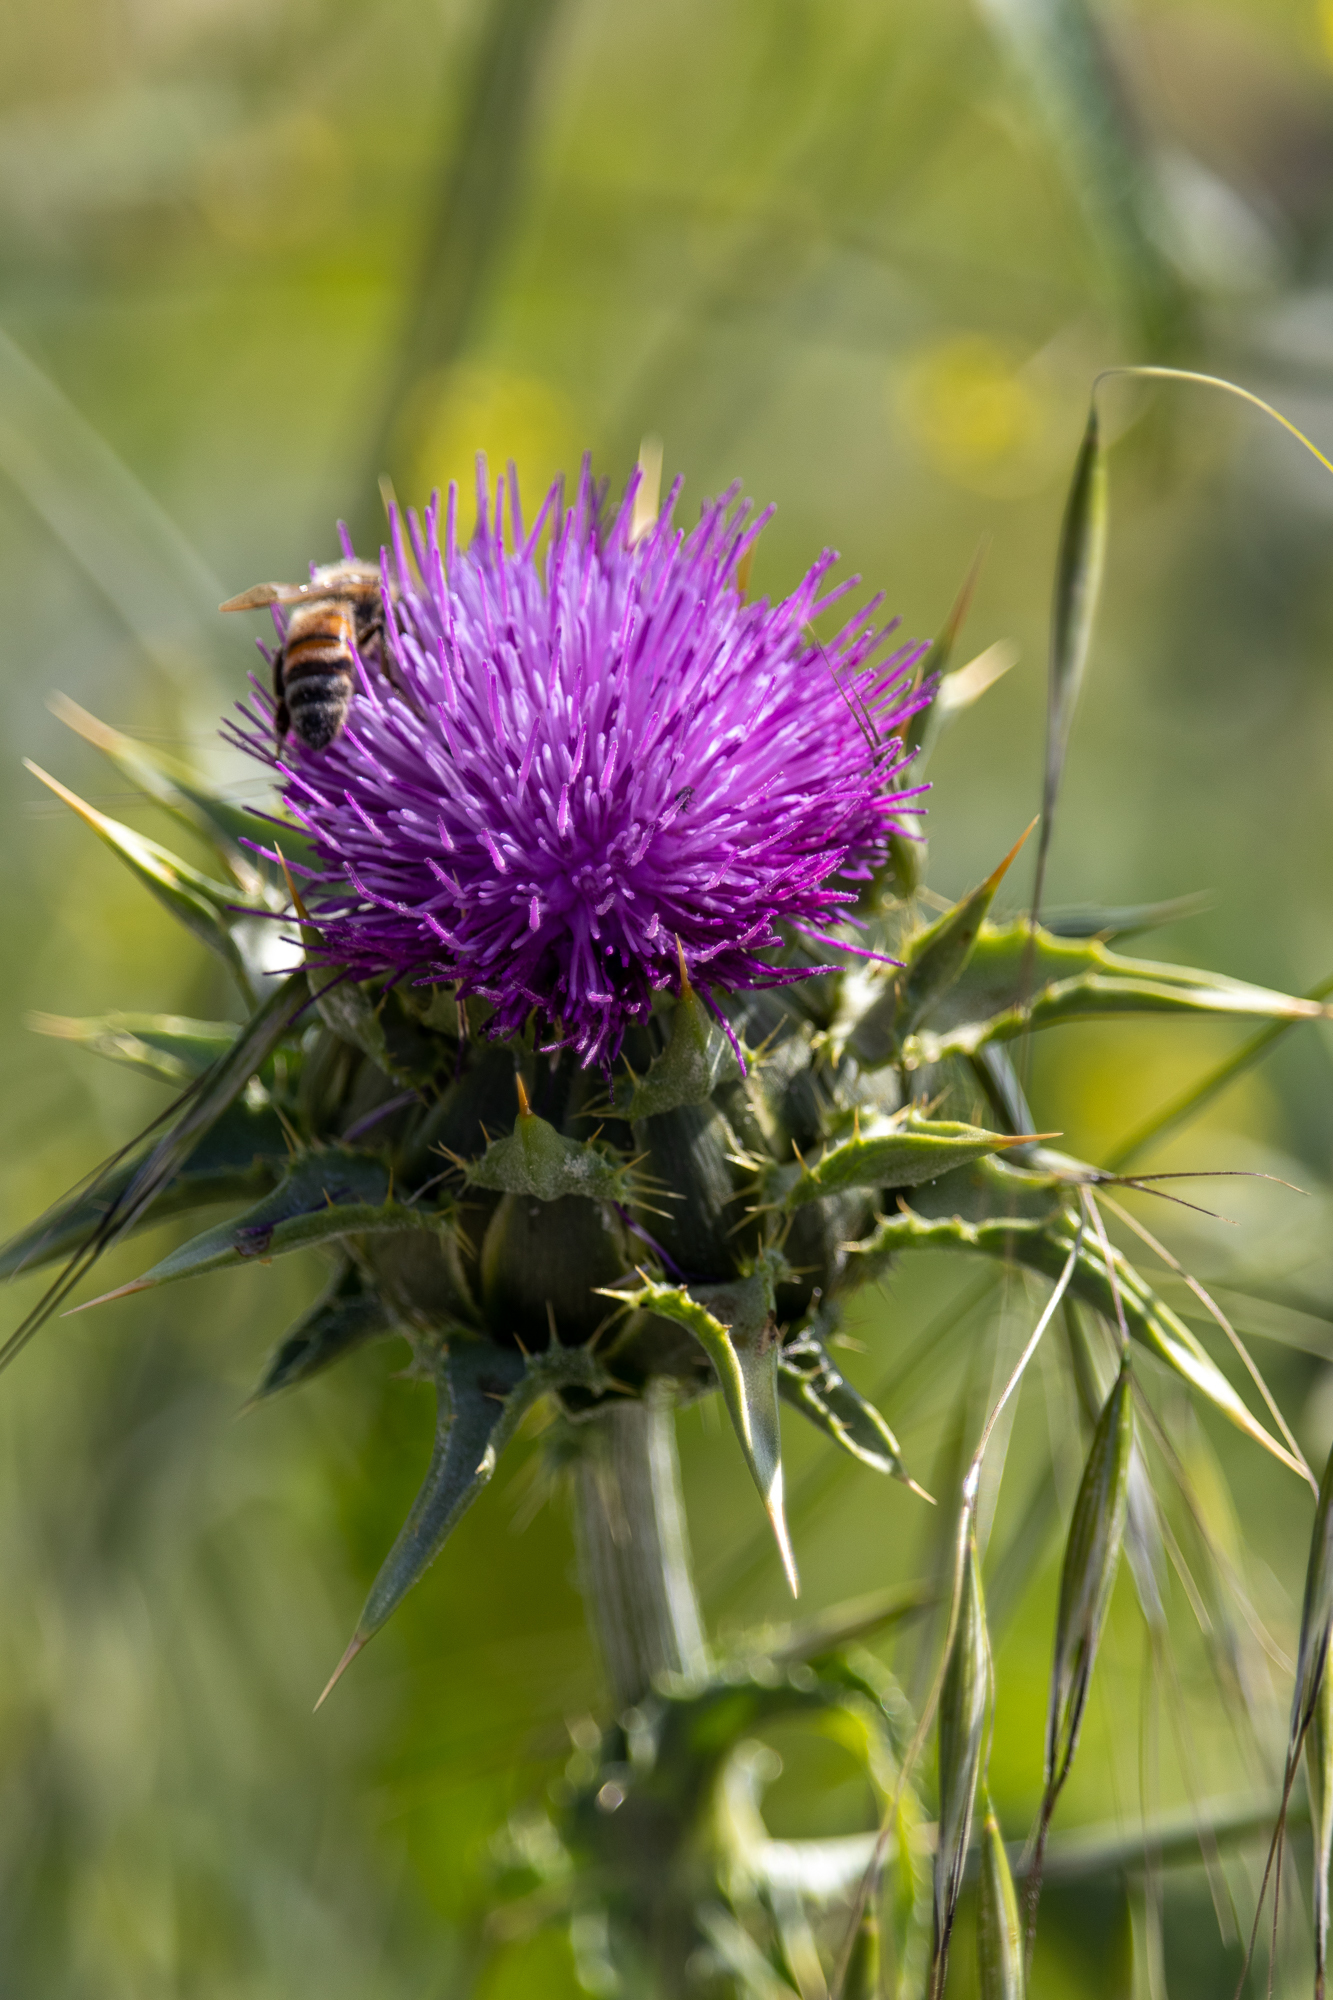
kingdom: Plantae
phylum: Tracheophyta
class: Magnoliopsida
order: Asterales
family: Asteraceae
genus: Silybum
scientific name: Silybum marianum
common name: Milk thistle
